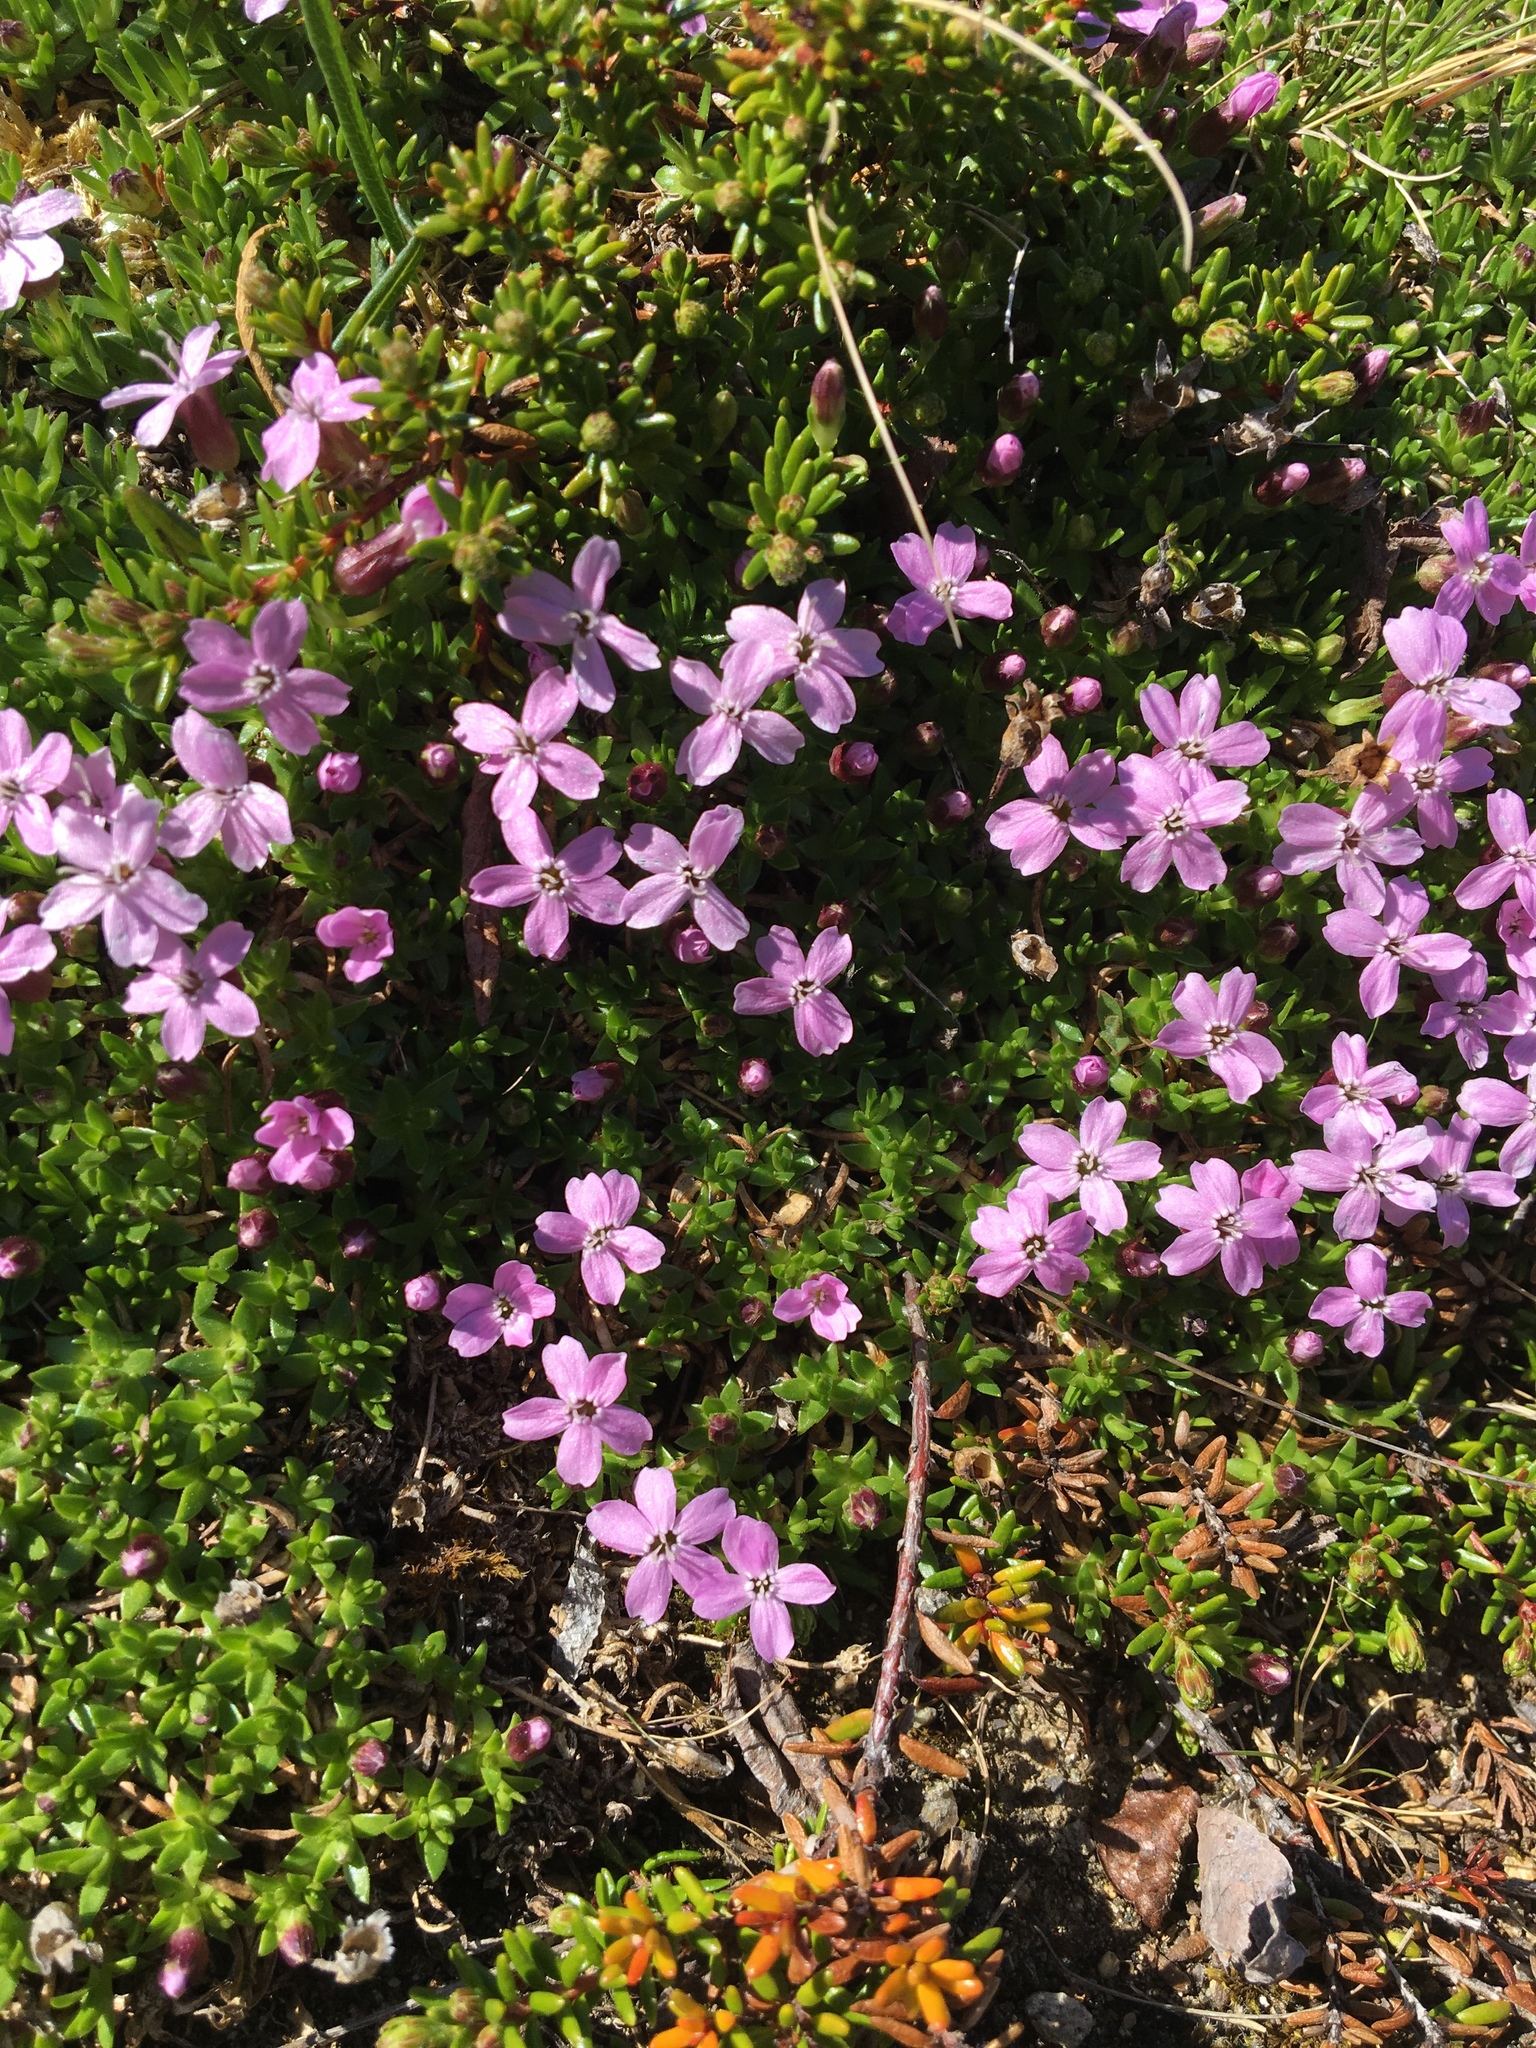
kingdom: Plantae
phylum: Tracheophyta
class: Magnoliopsida
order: Caryophyllales
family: Caryophyllaceae
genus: Silene
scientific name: Silene acaulis
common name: Moss campion
